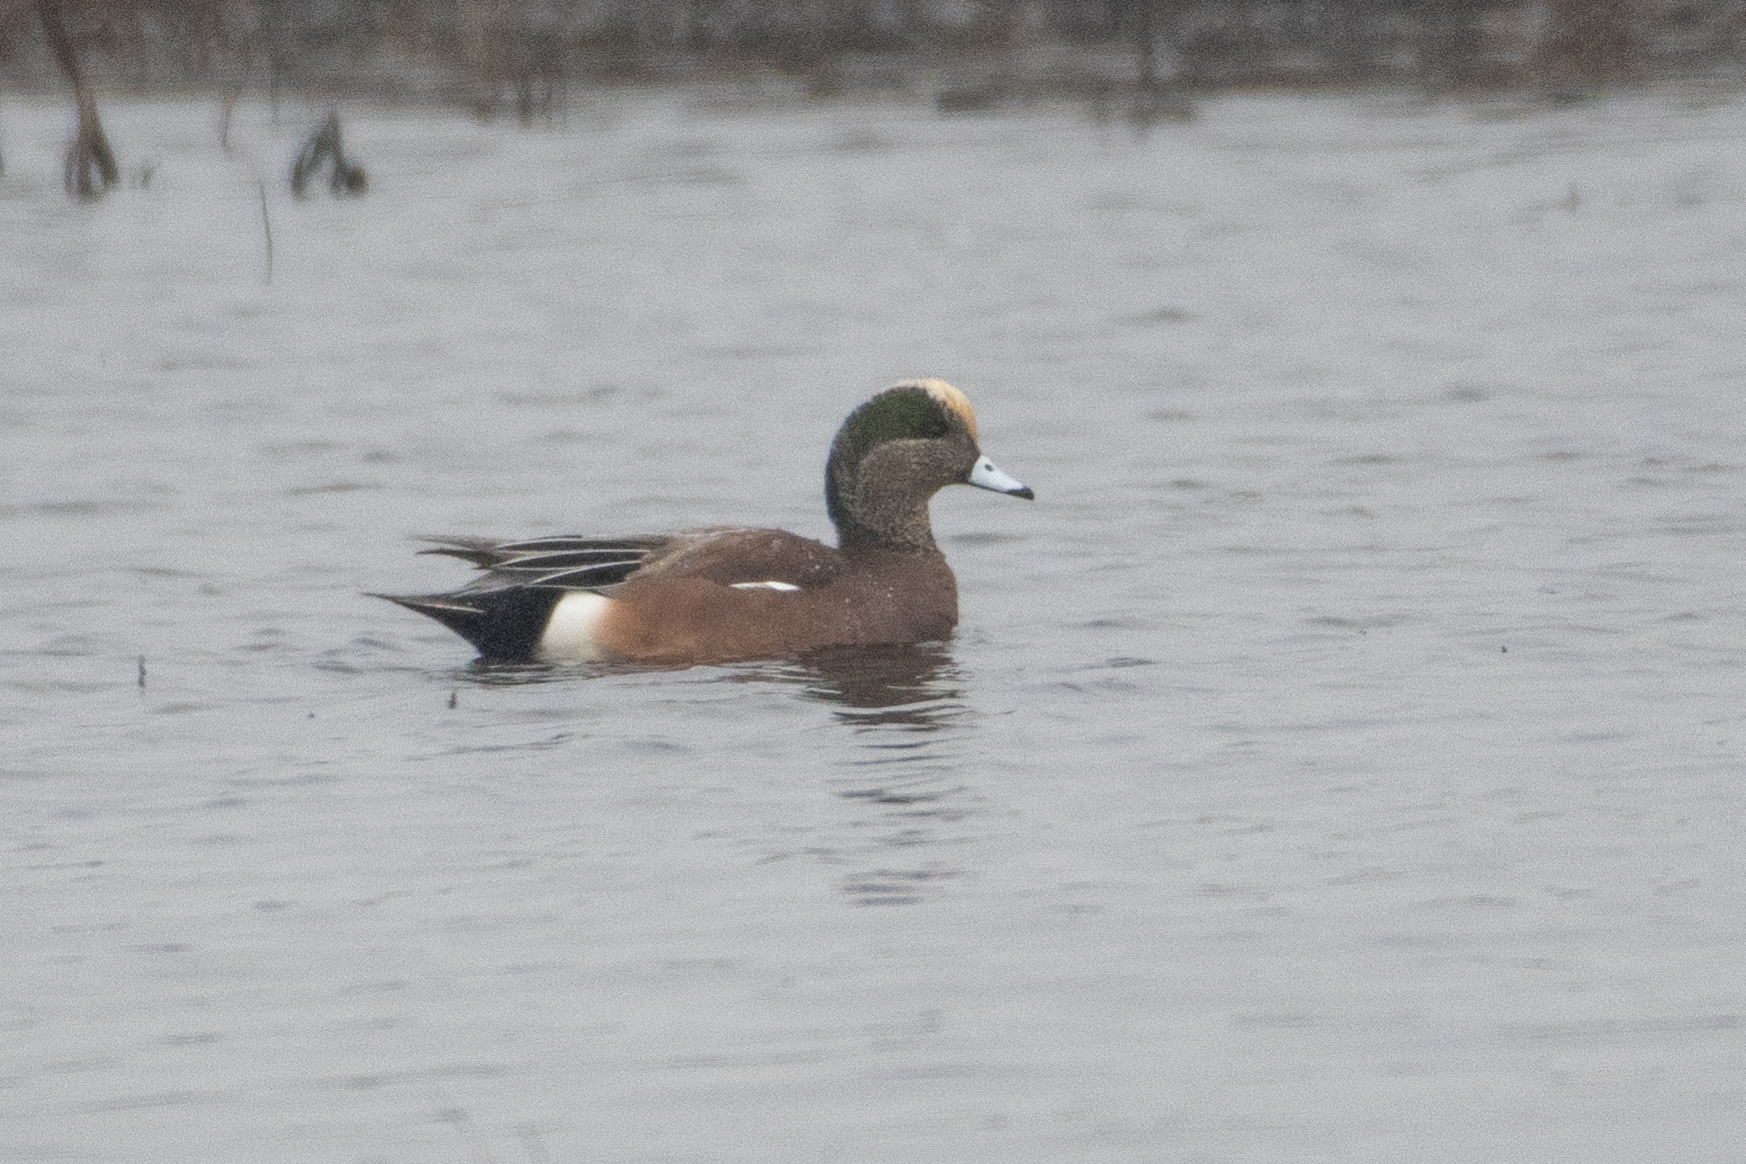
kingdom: Animalia
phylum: Chordata
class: Aves
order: Anseriformes
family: Anatidae
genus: Mareca
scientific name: Mareca americana
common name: American wigeon
